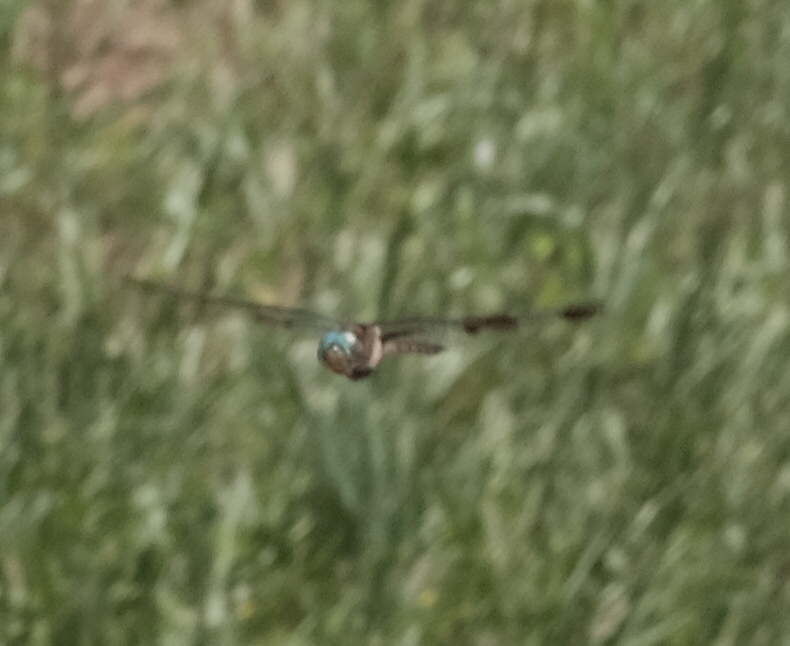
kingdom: Animalia
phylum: Arthropoda
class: Insecta
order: Odonata
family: Corduliidae
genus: Epitheca
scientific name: Epitheca princeps
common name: Prince baskettail
